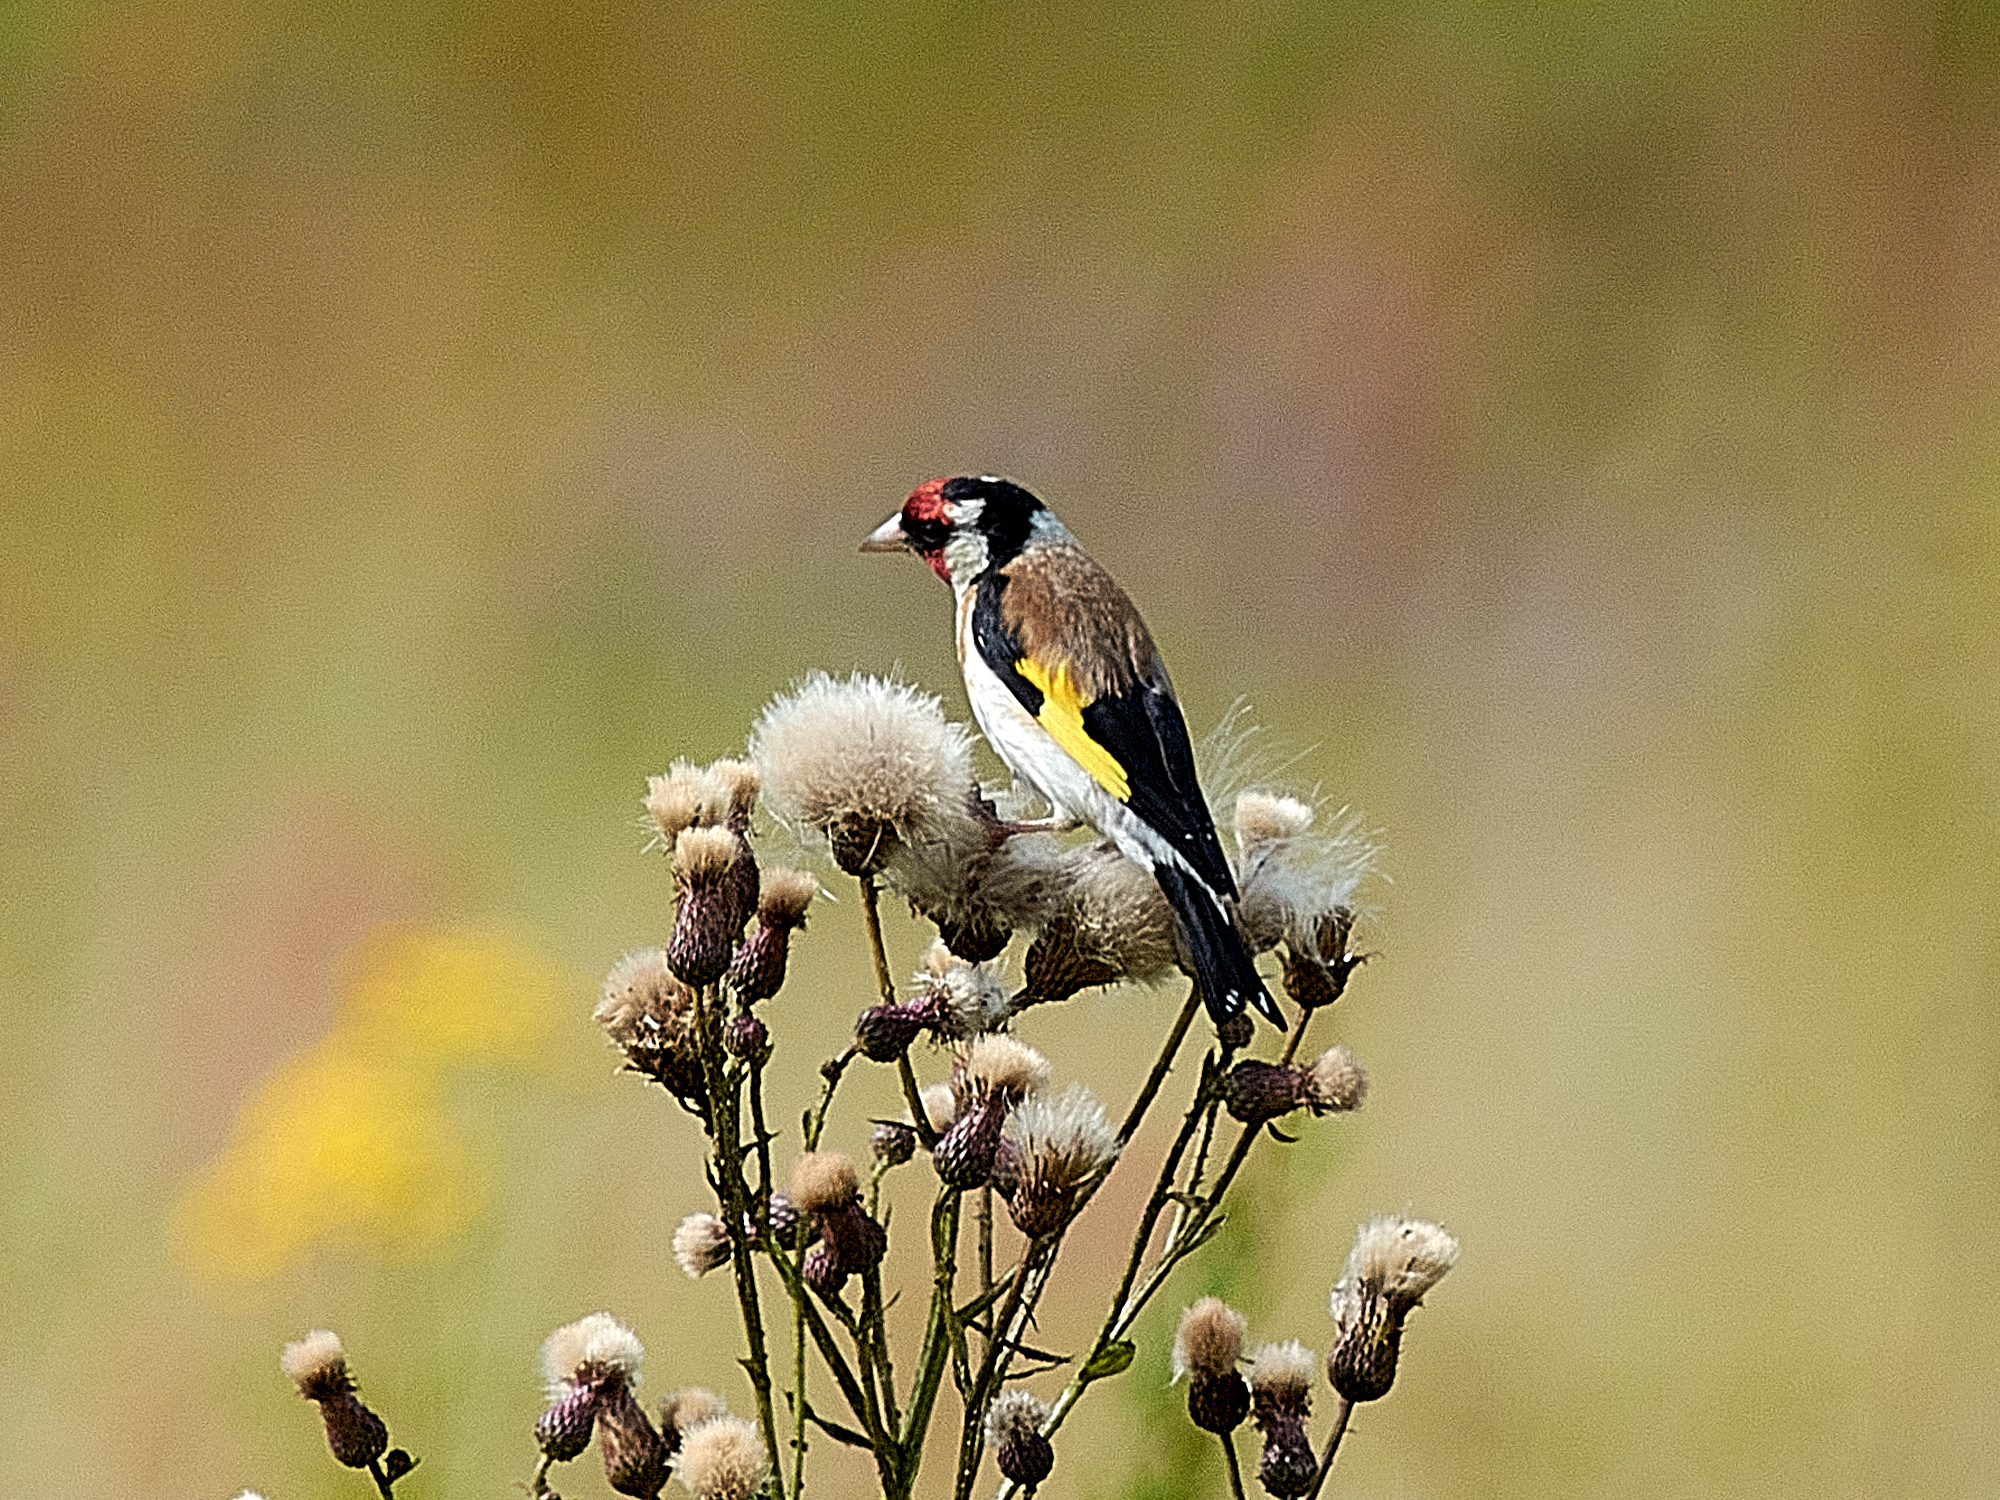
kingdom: Animalia
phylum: Chordata
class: Aves
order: Passeriformes
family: Fringillidae
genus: Carduelis
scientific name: Carduelis carduelis
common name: European goldfinch
